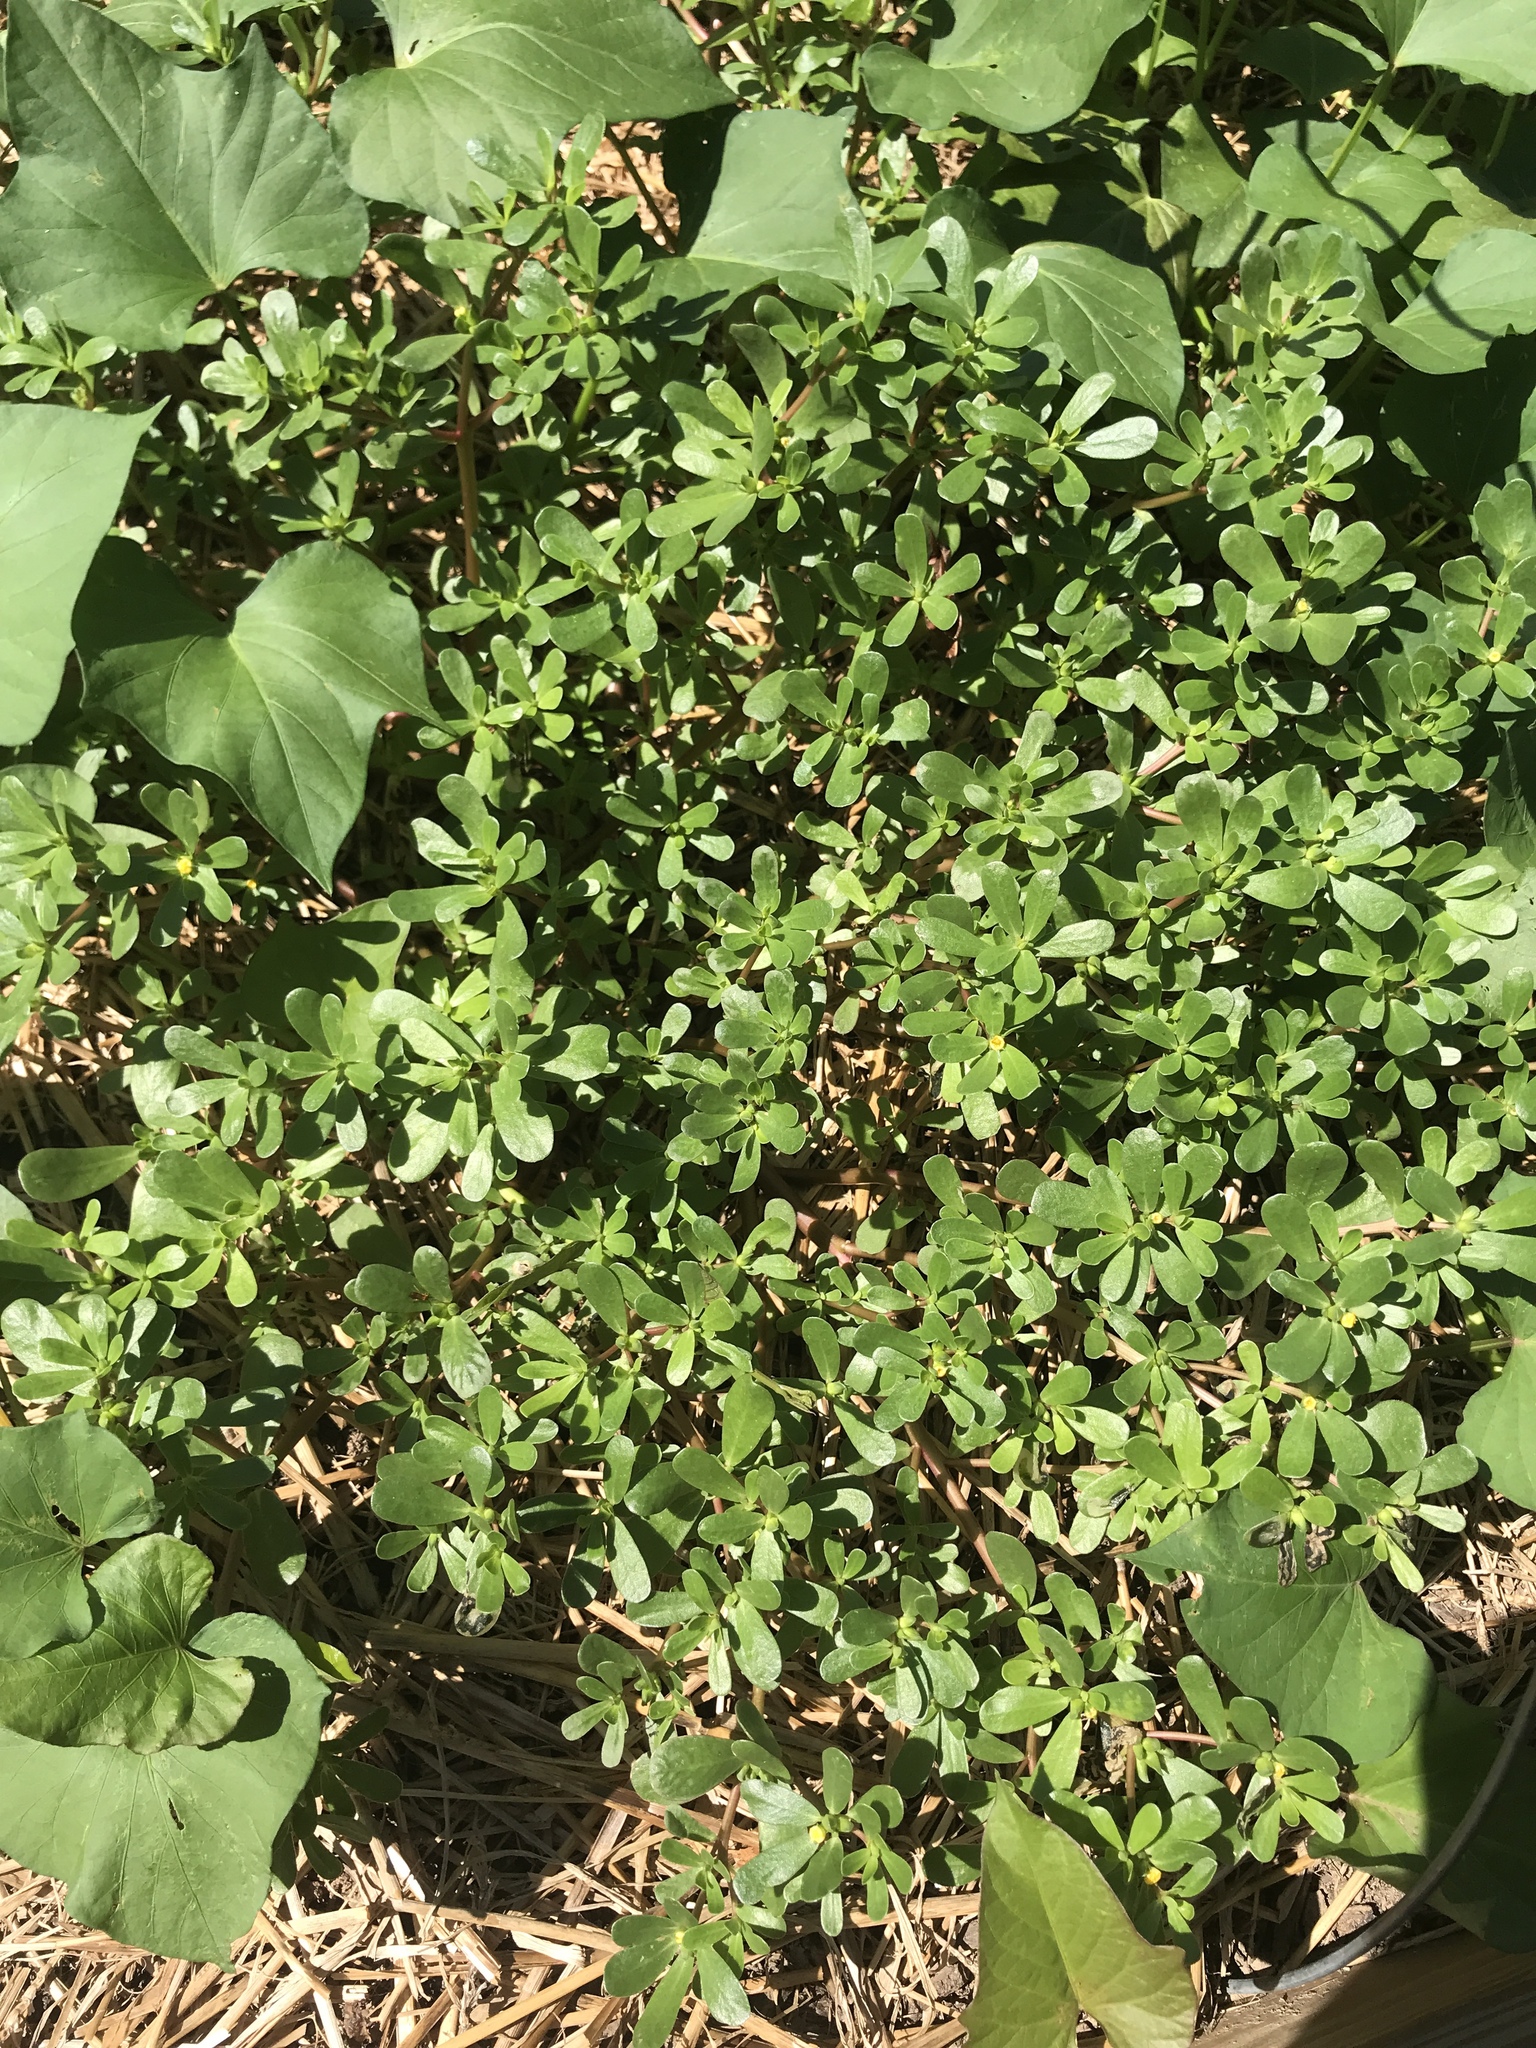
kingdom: Plantae
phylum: Tracheophyta
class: Magnoliopsida
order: Caryophyllales
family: Portulacaceae
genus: Portulaca
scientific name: Portulaca oleracea
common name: Common purslane
